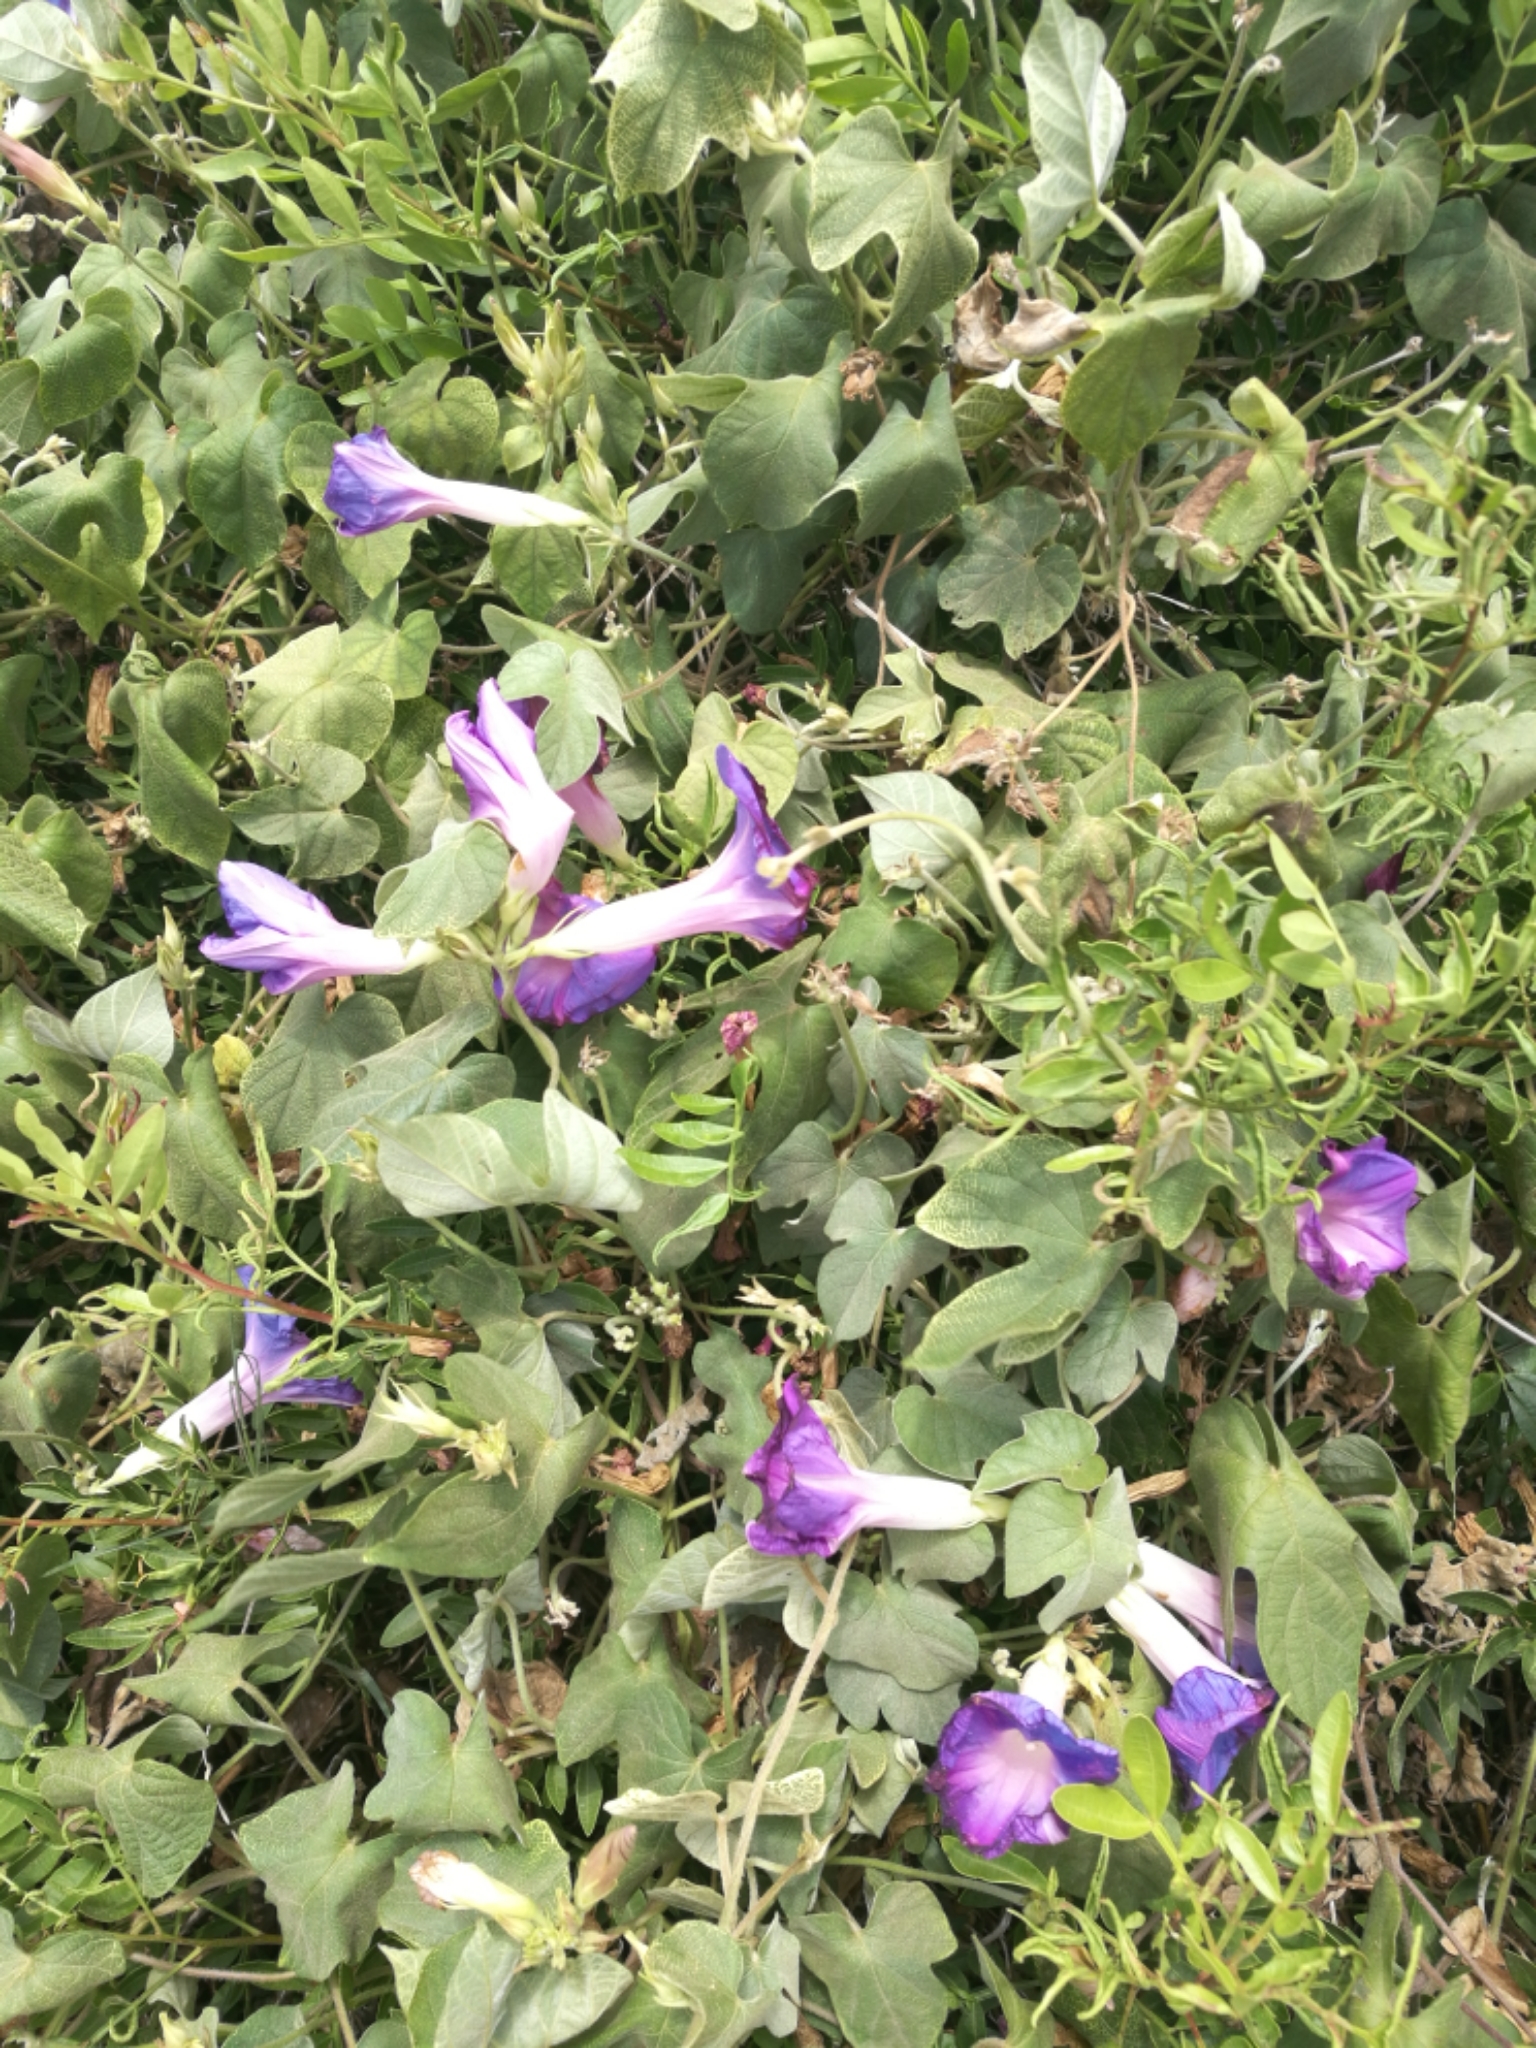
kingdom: Plantae
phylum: Tracheophyta
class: Magnoliopsida
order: Solanales
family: Convolvulaceae
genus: Ipomoea
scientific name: Ipomoea indica
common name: Blue dawnflower
